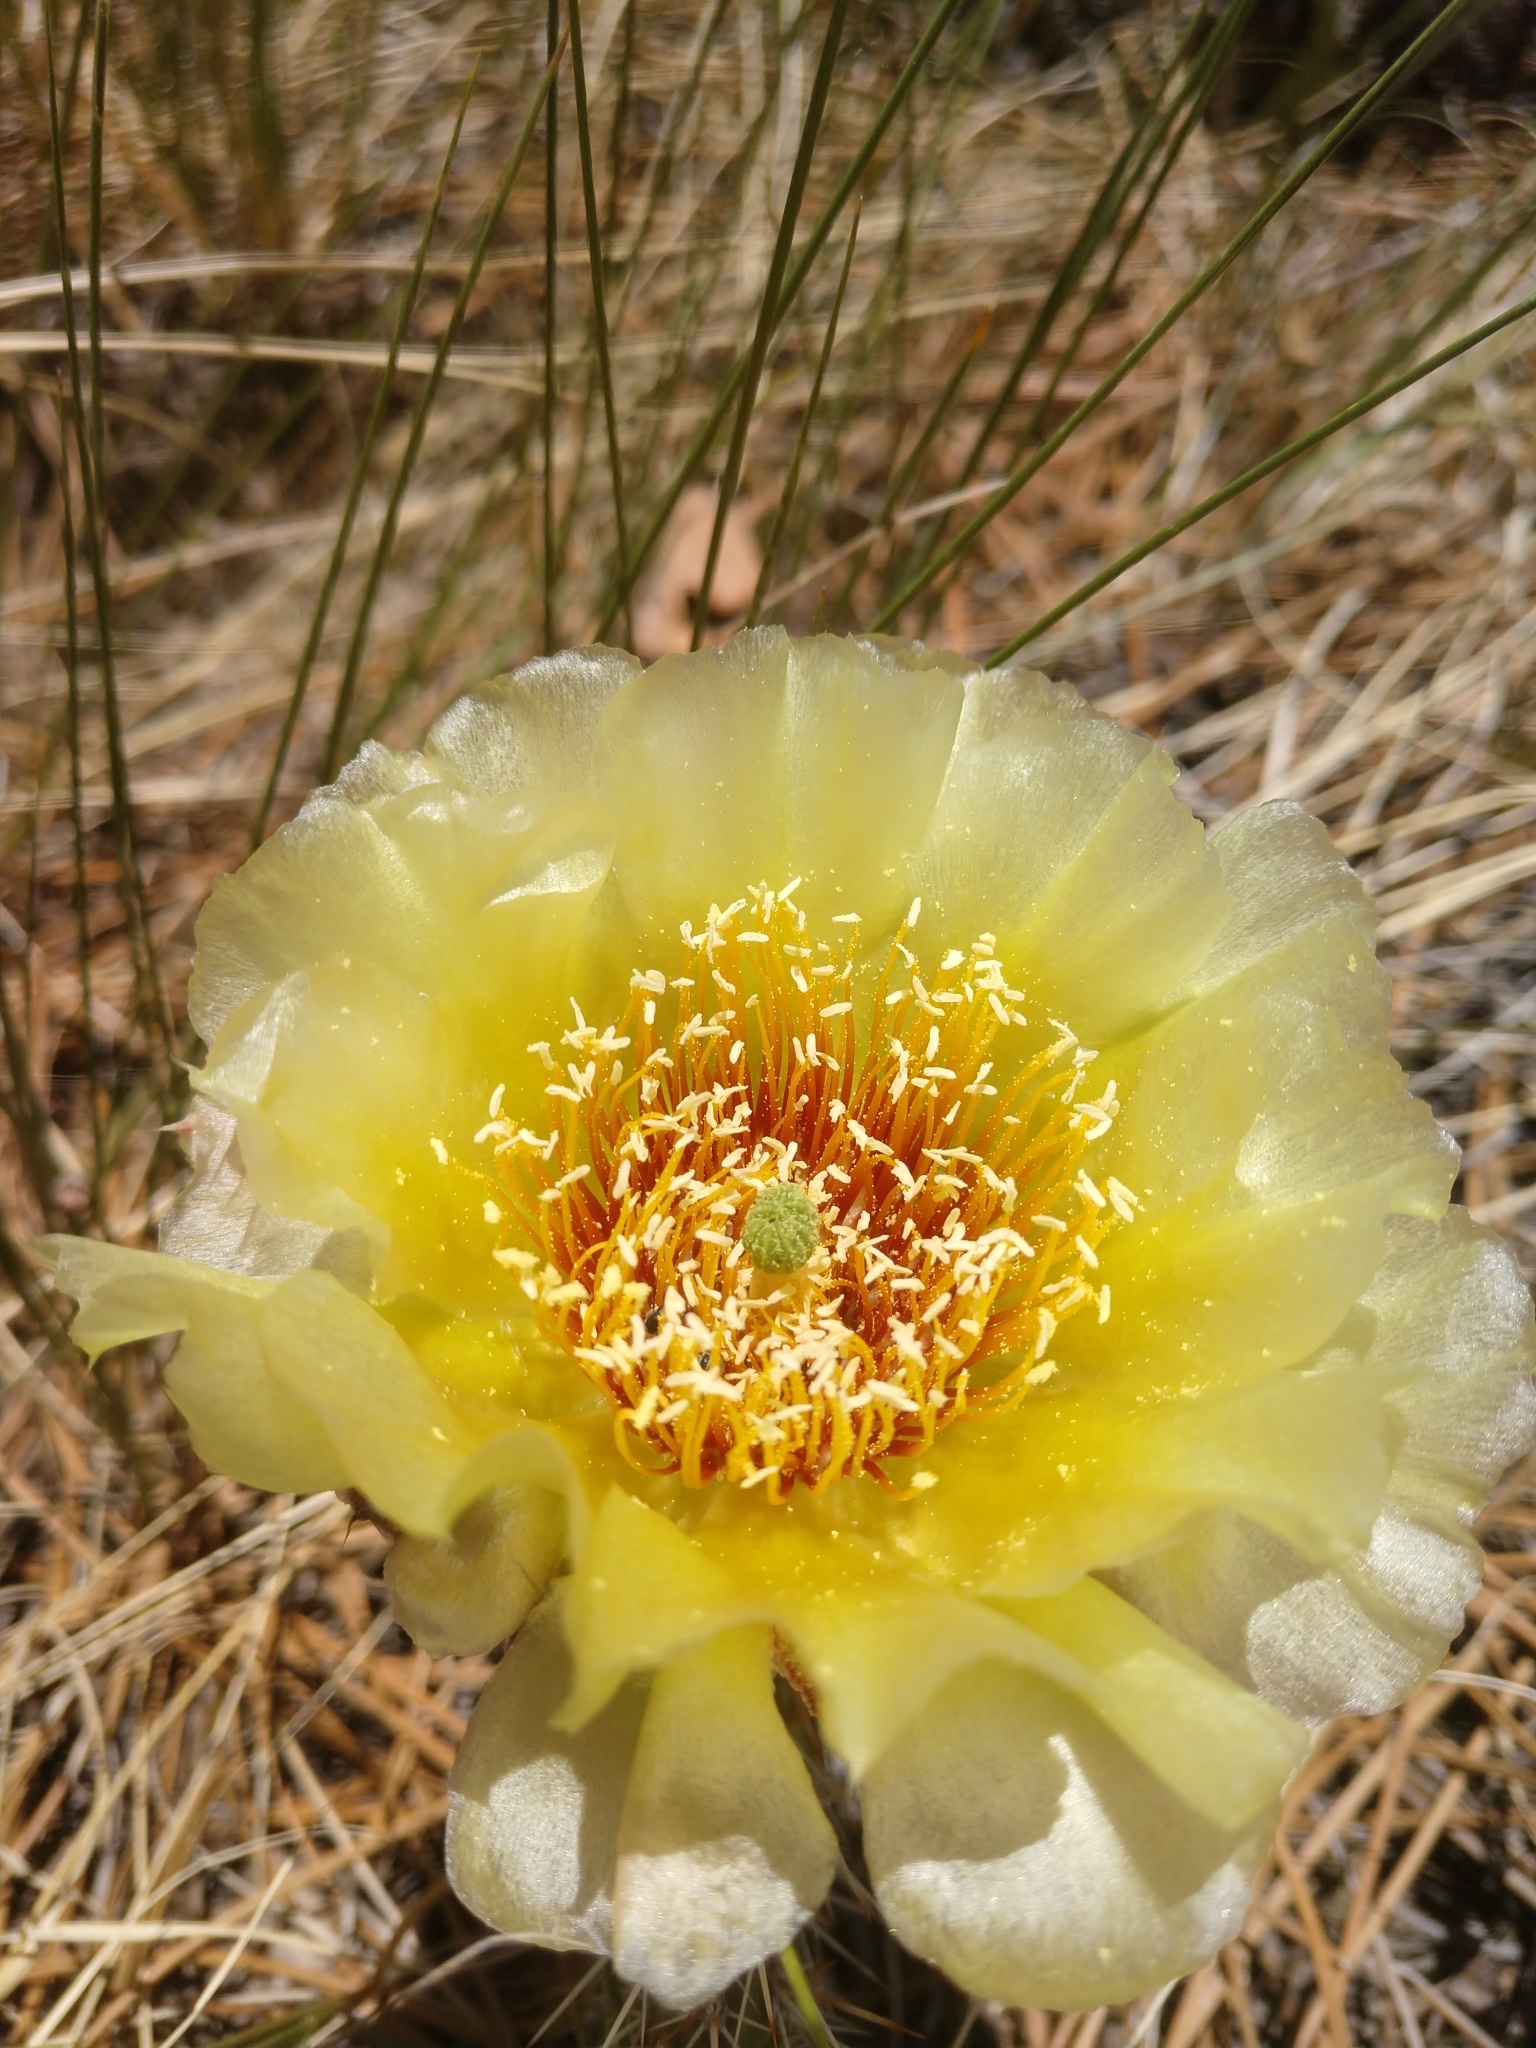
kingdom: Plantae
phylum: Tracheophyta
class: Magnoliopsida
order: Caryophyllales
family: Cactaceae
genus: Opuntia
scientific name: Opuntia polyacantha
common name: Plains prickly-pear
